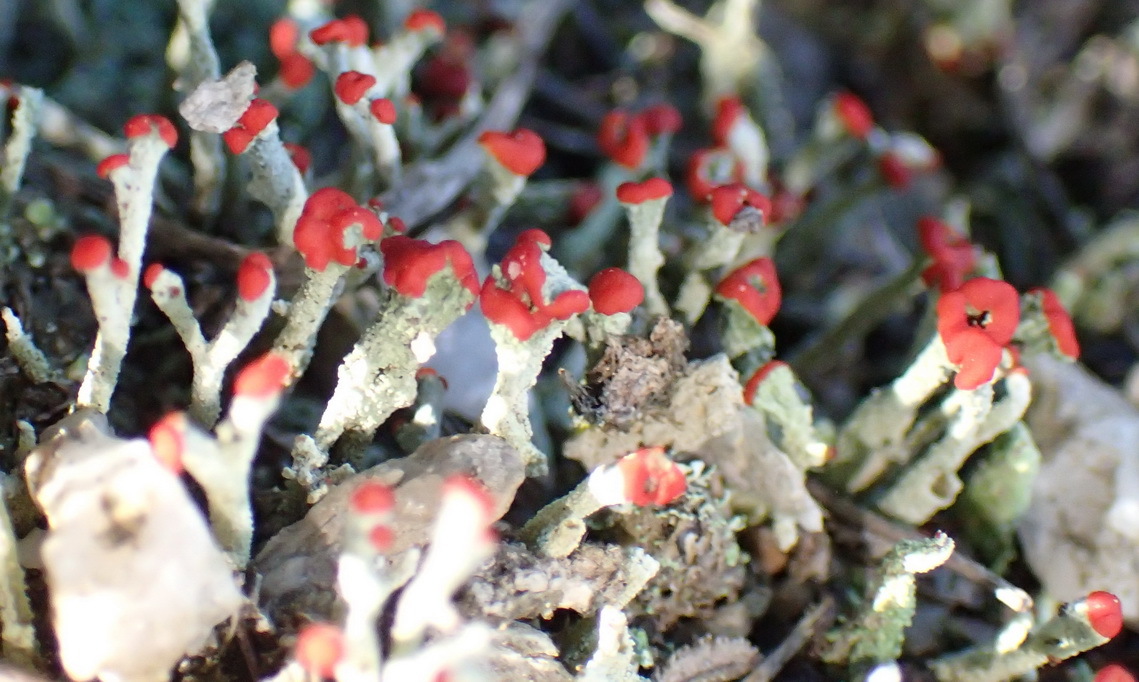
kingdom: Fungi
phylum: Ascomycota
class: Lecanoromycetes
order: Lecanorales
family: Cladoniaceae
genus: Cladonia
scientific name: Cladonia floerkeana
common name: Gritty british soldiers lichen
